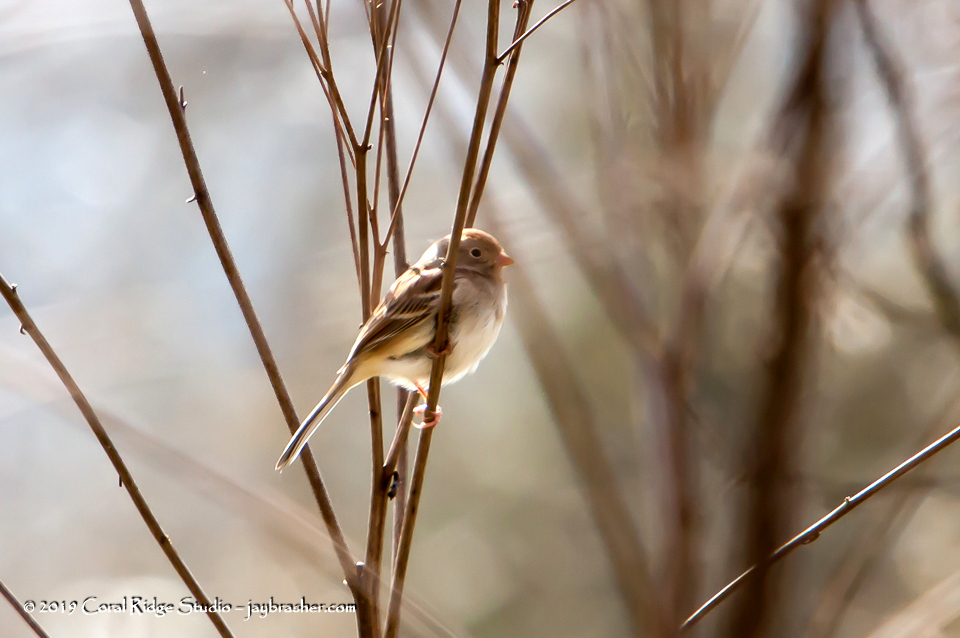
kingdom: Animalia
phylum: Chordata
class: Aves
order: Passeriformes
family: Passerellidae
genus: Spizella
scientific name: Spizella pusilla
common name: Field sparrow
